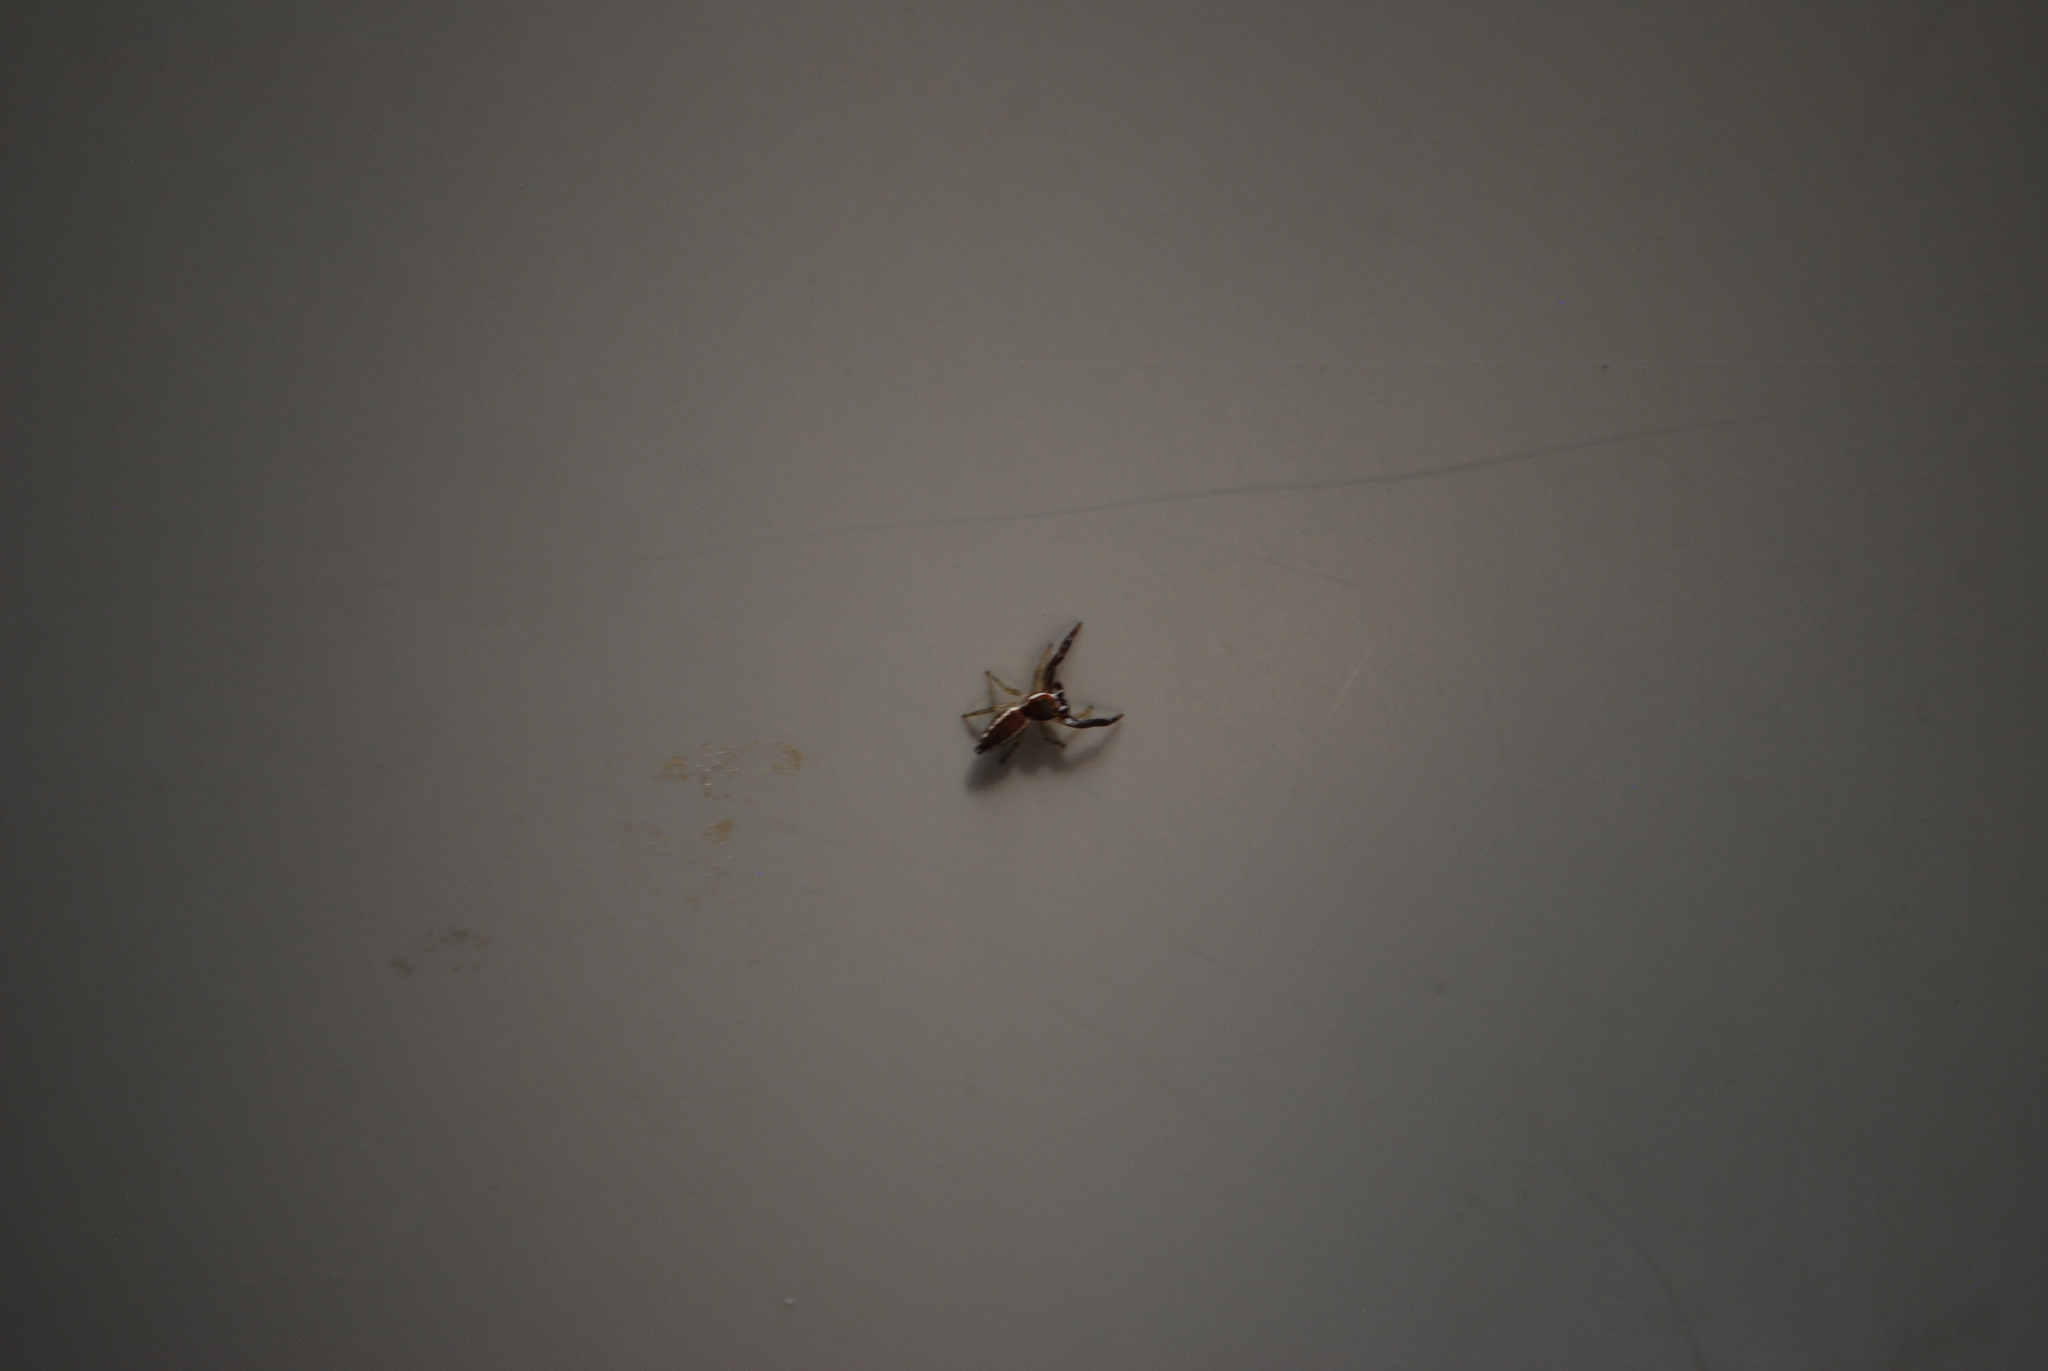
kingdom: Animalia
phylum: Arthropoda
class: Arachnida
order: Araneae
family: Salticidae
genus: Hentzia
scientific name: Hentzia palmarum
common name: Common hentz jumping spider
